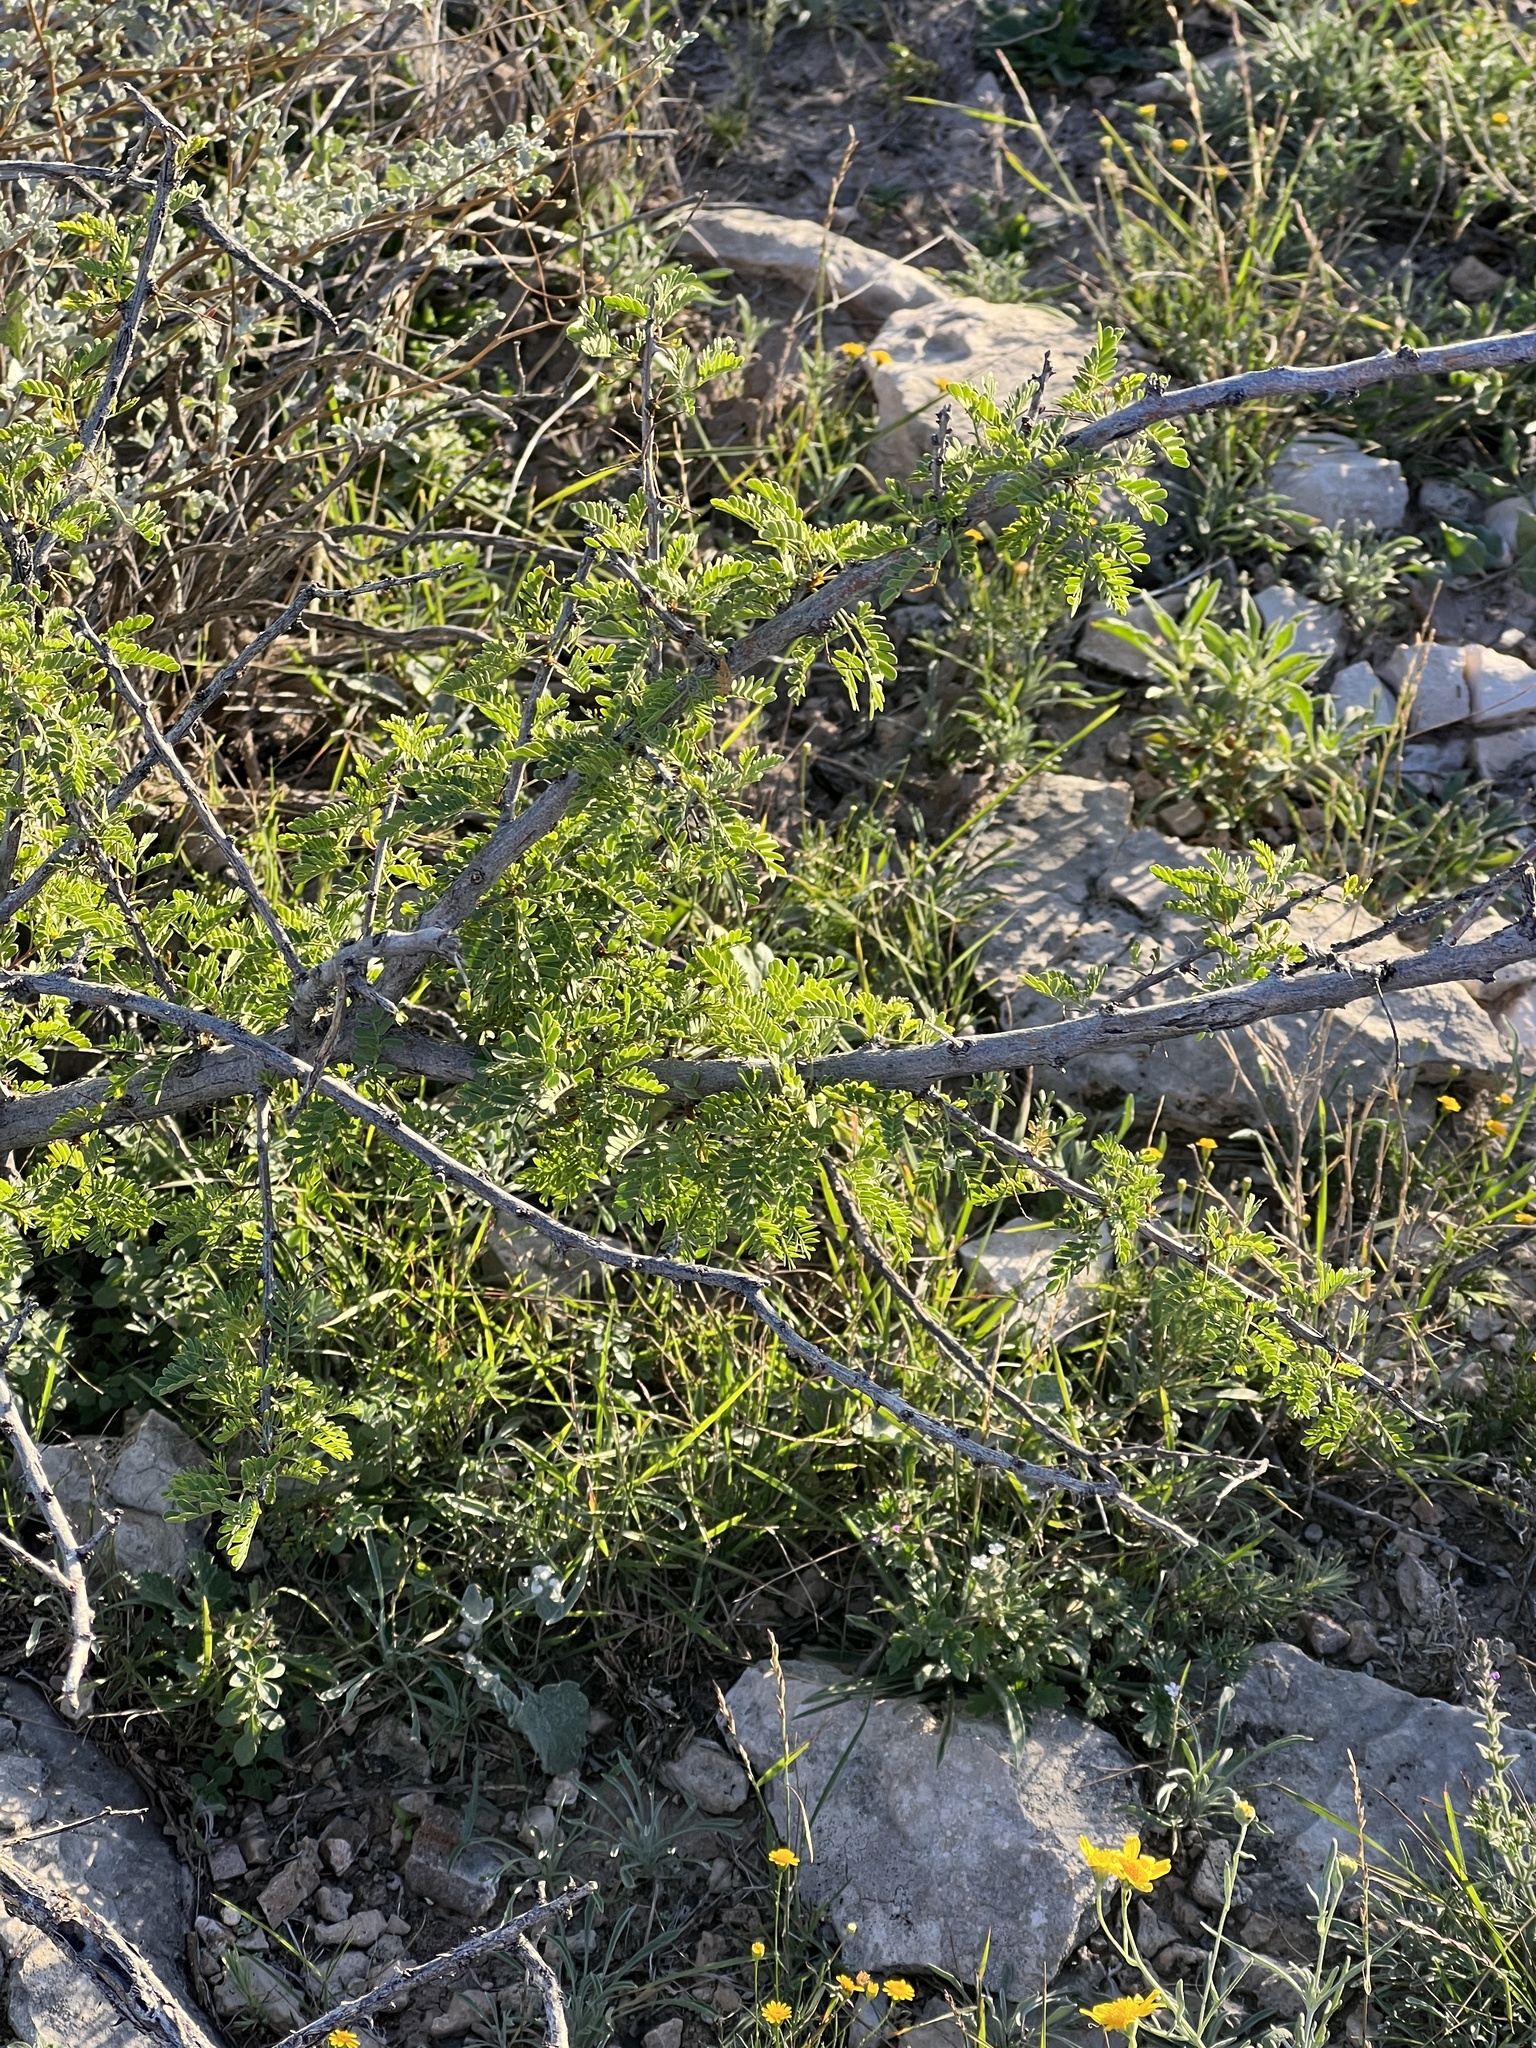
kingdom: Plantae
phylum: Tracheophyta
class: Magnoliopsida
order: Fabales
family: Fabaceae
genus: Vachellia
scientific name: Vachellia vernicosa
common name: Viscid acacia
